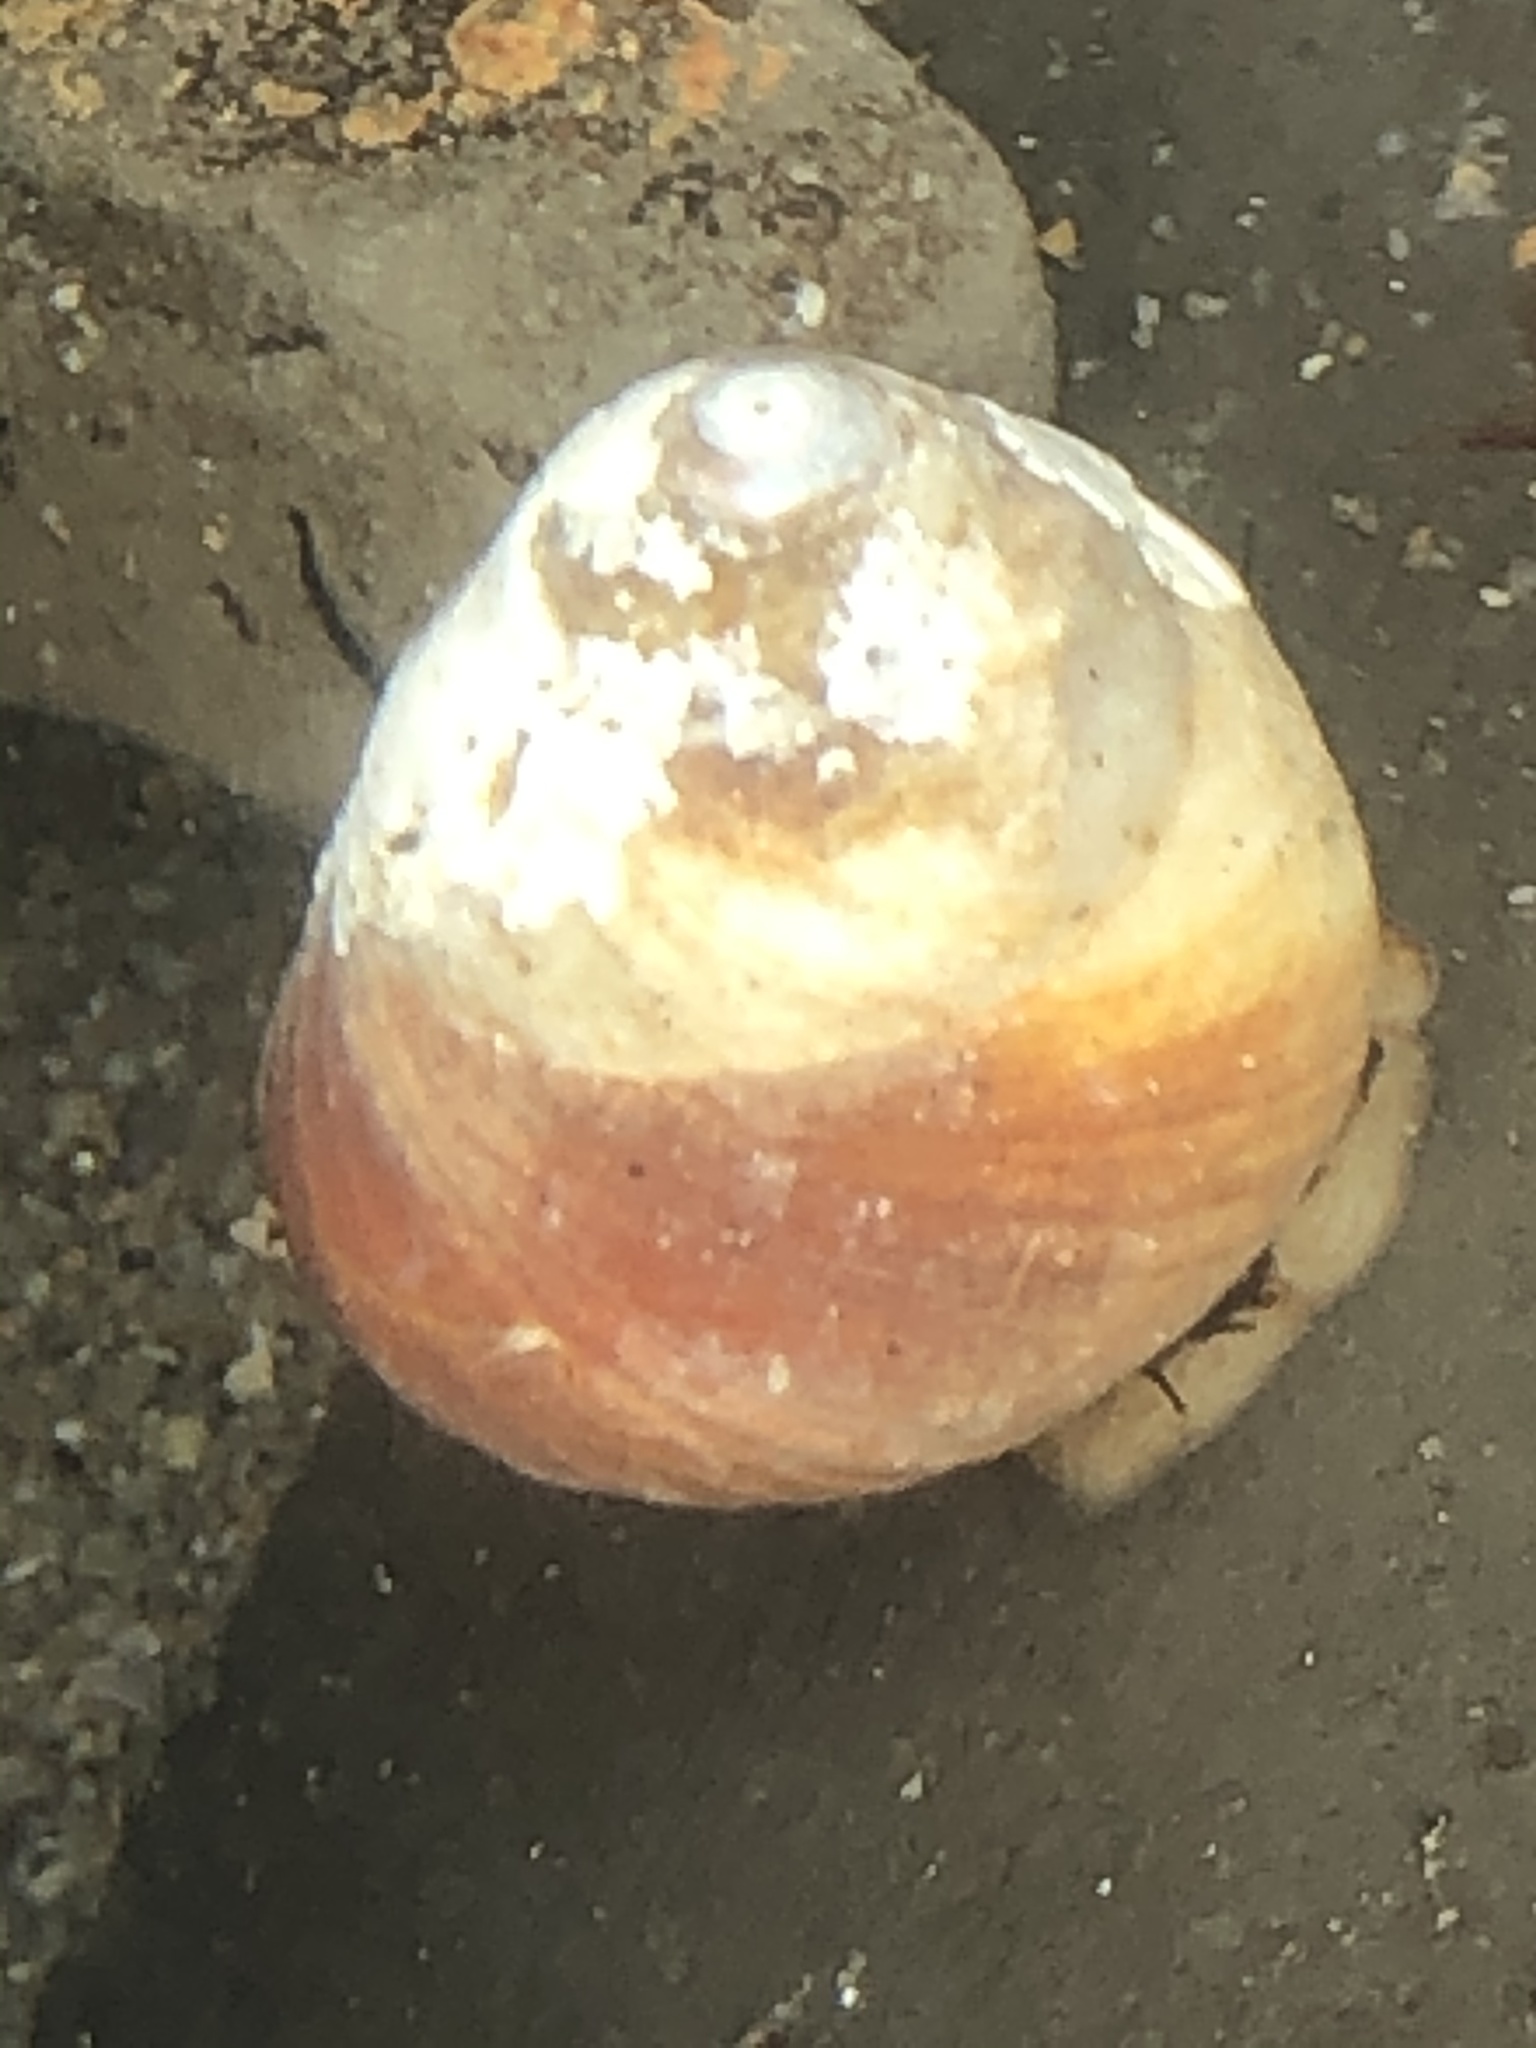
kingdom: Animalia
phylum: Mollusca
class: Gastropoda
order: Trochida
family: Tegulidae
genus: Tegula
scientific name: Tegula brunnea
